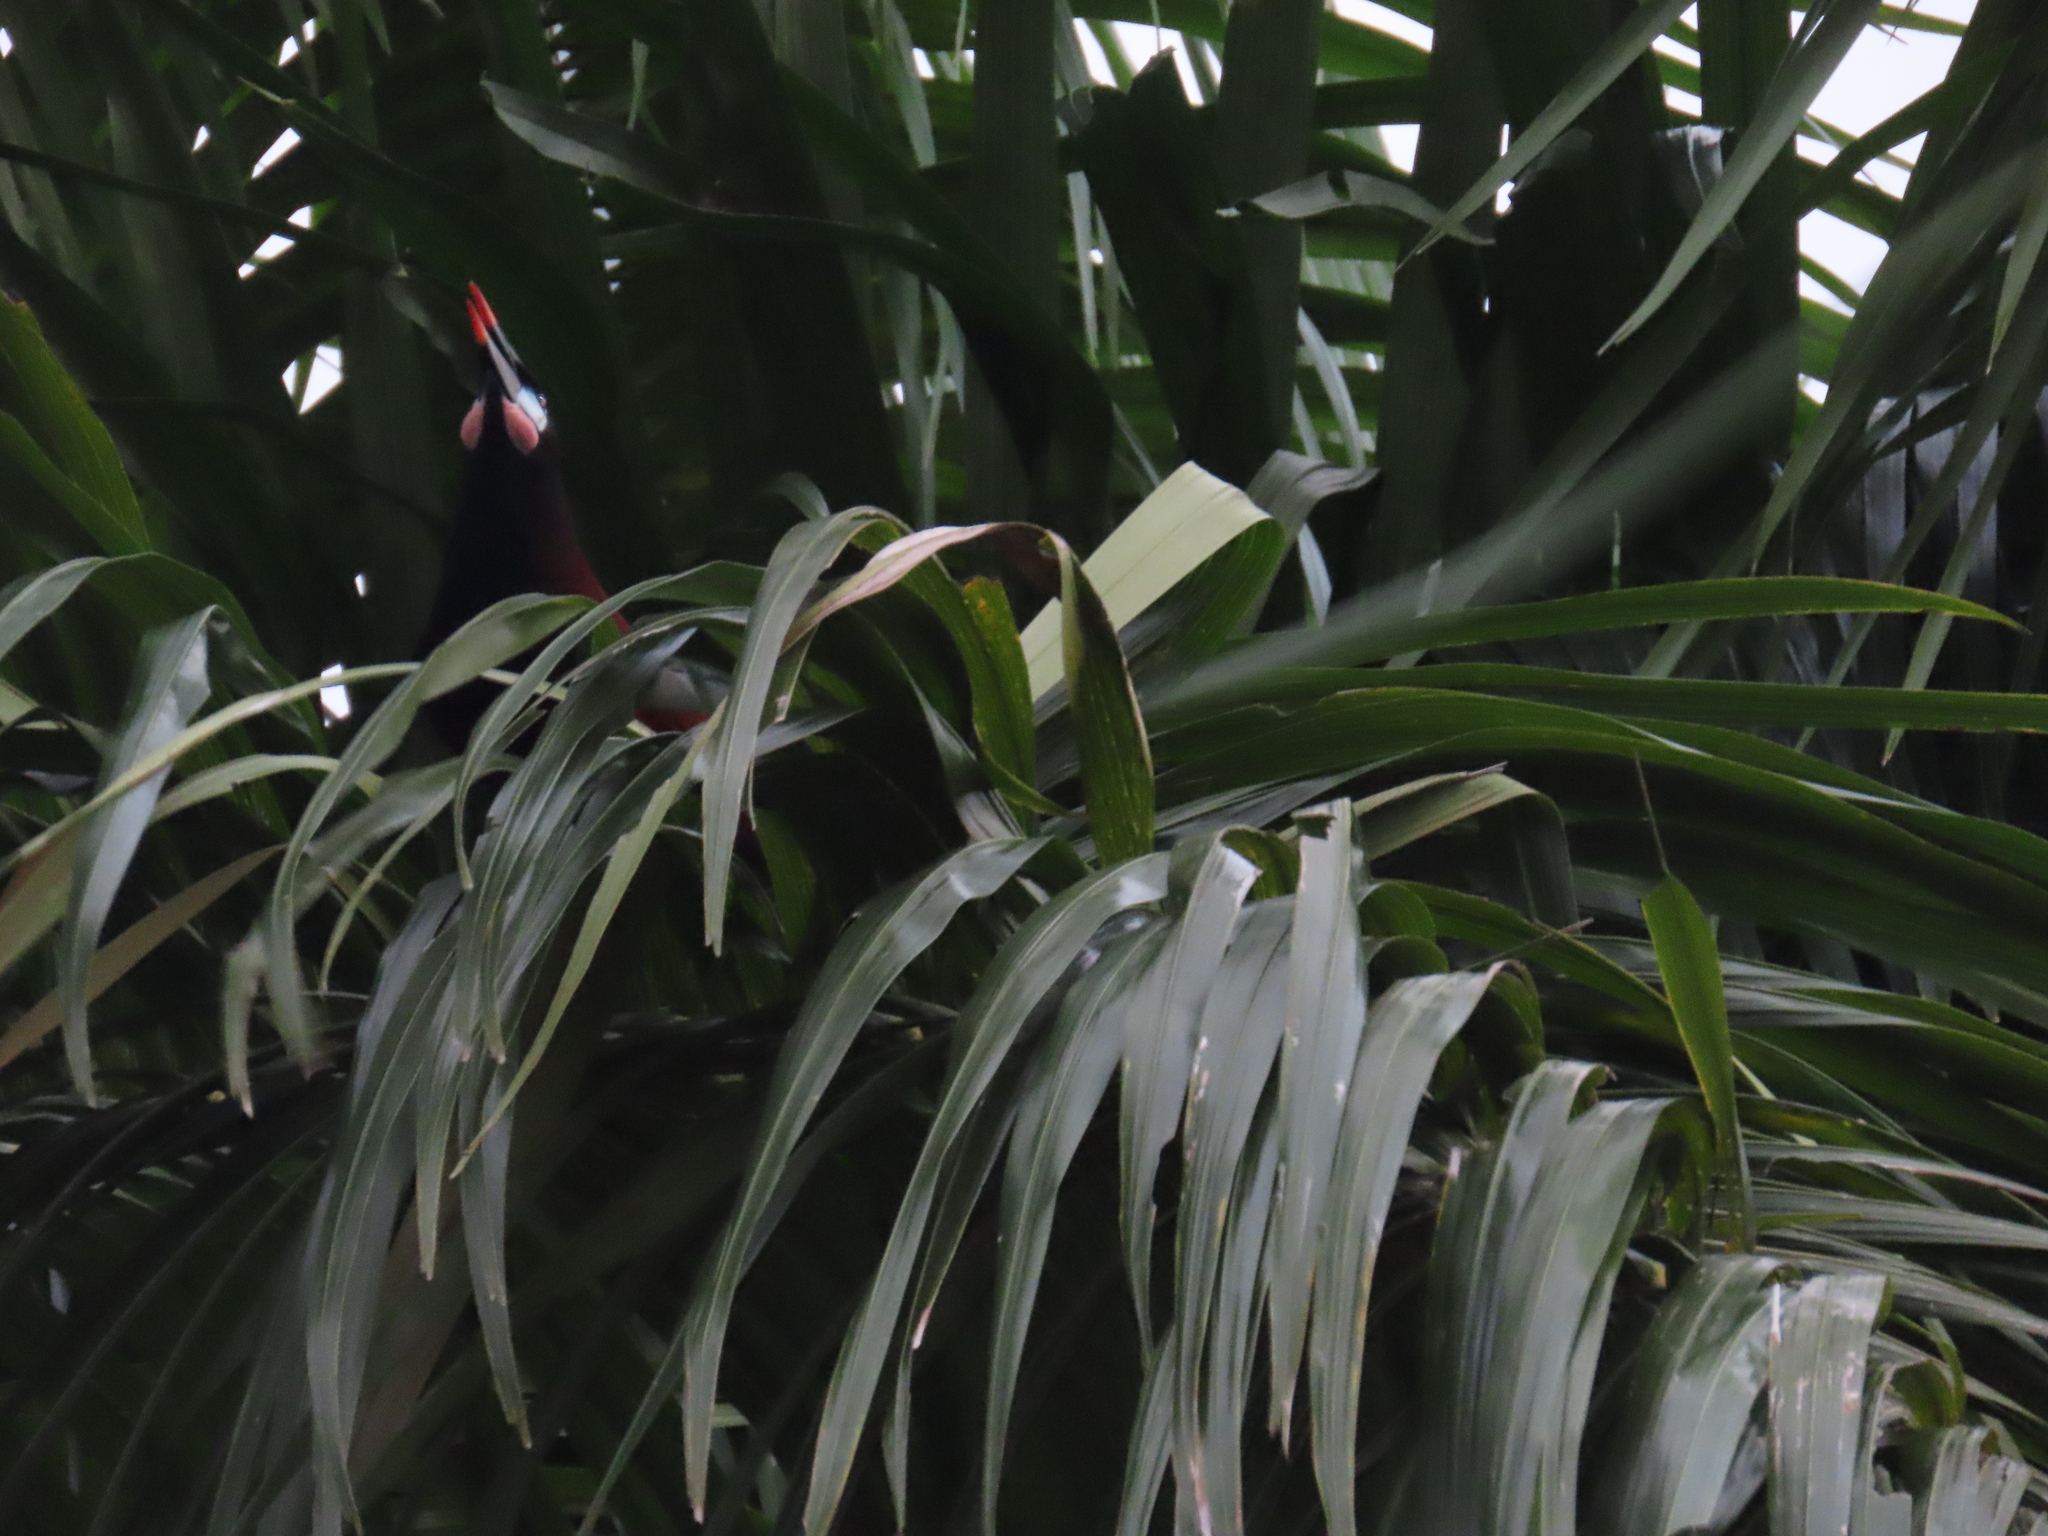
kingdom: Animalia
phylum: Chordata
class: Aves
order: Passeriformes
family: Icteridae
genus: Psarocolius
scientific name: Psarocolius montezuma
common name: Montezuma oropendola
